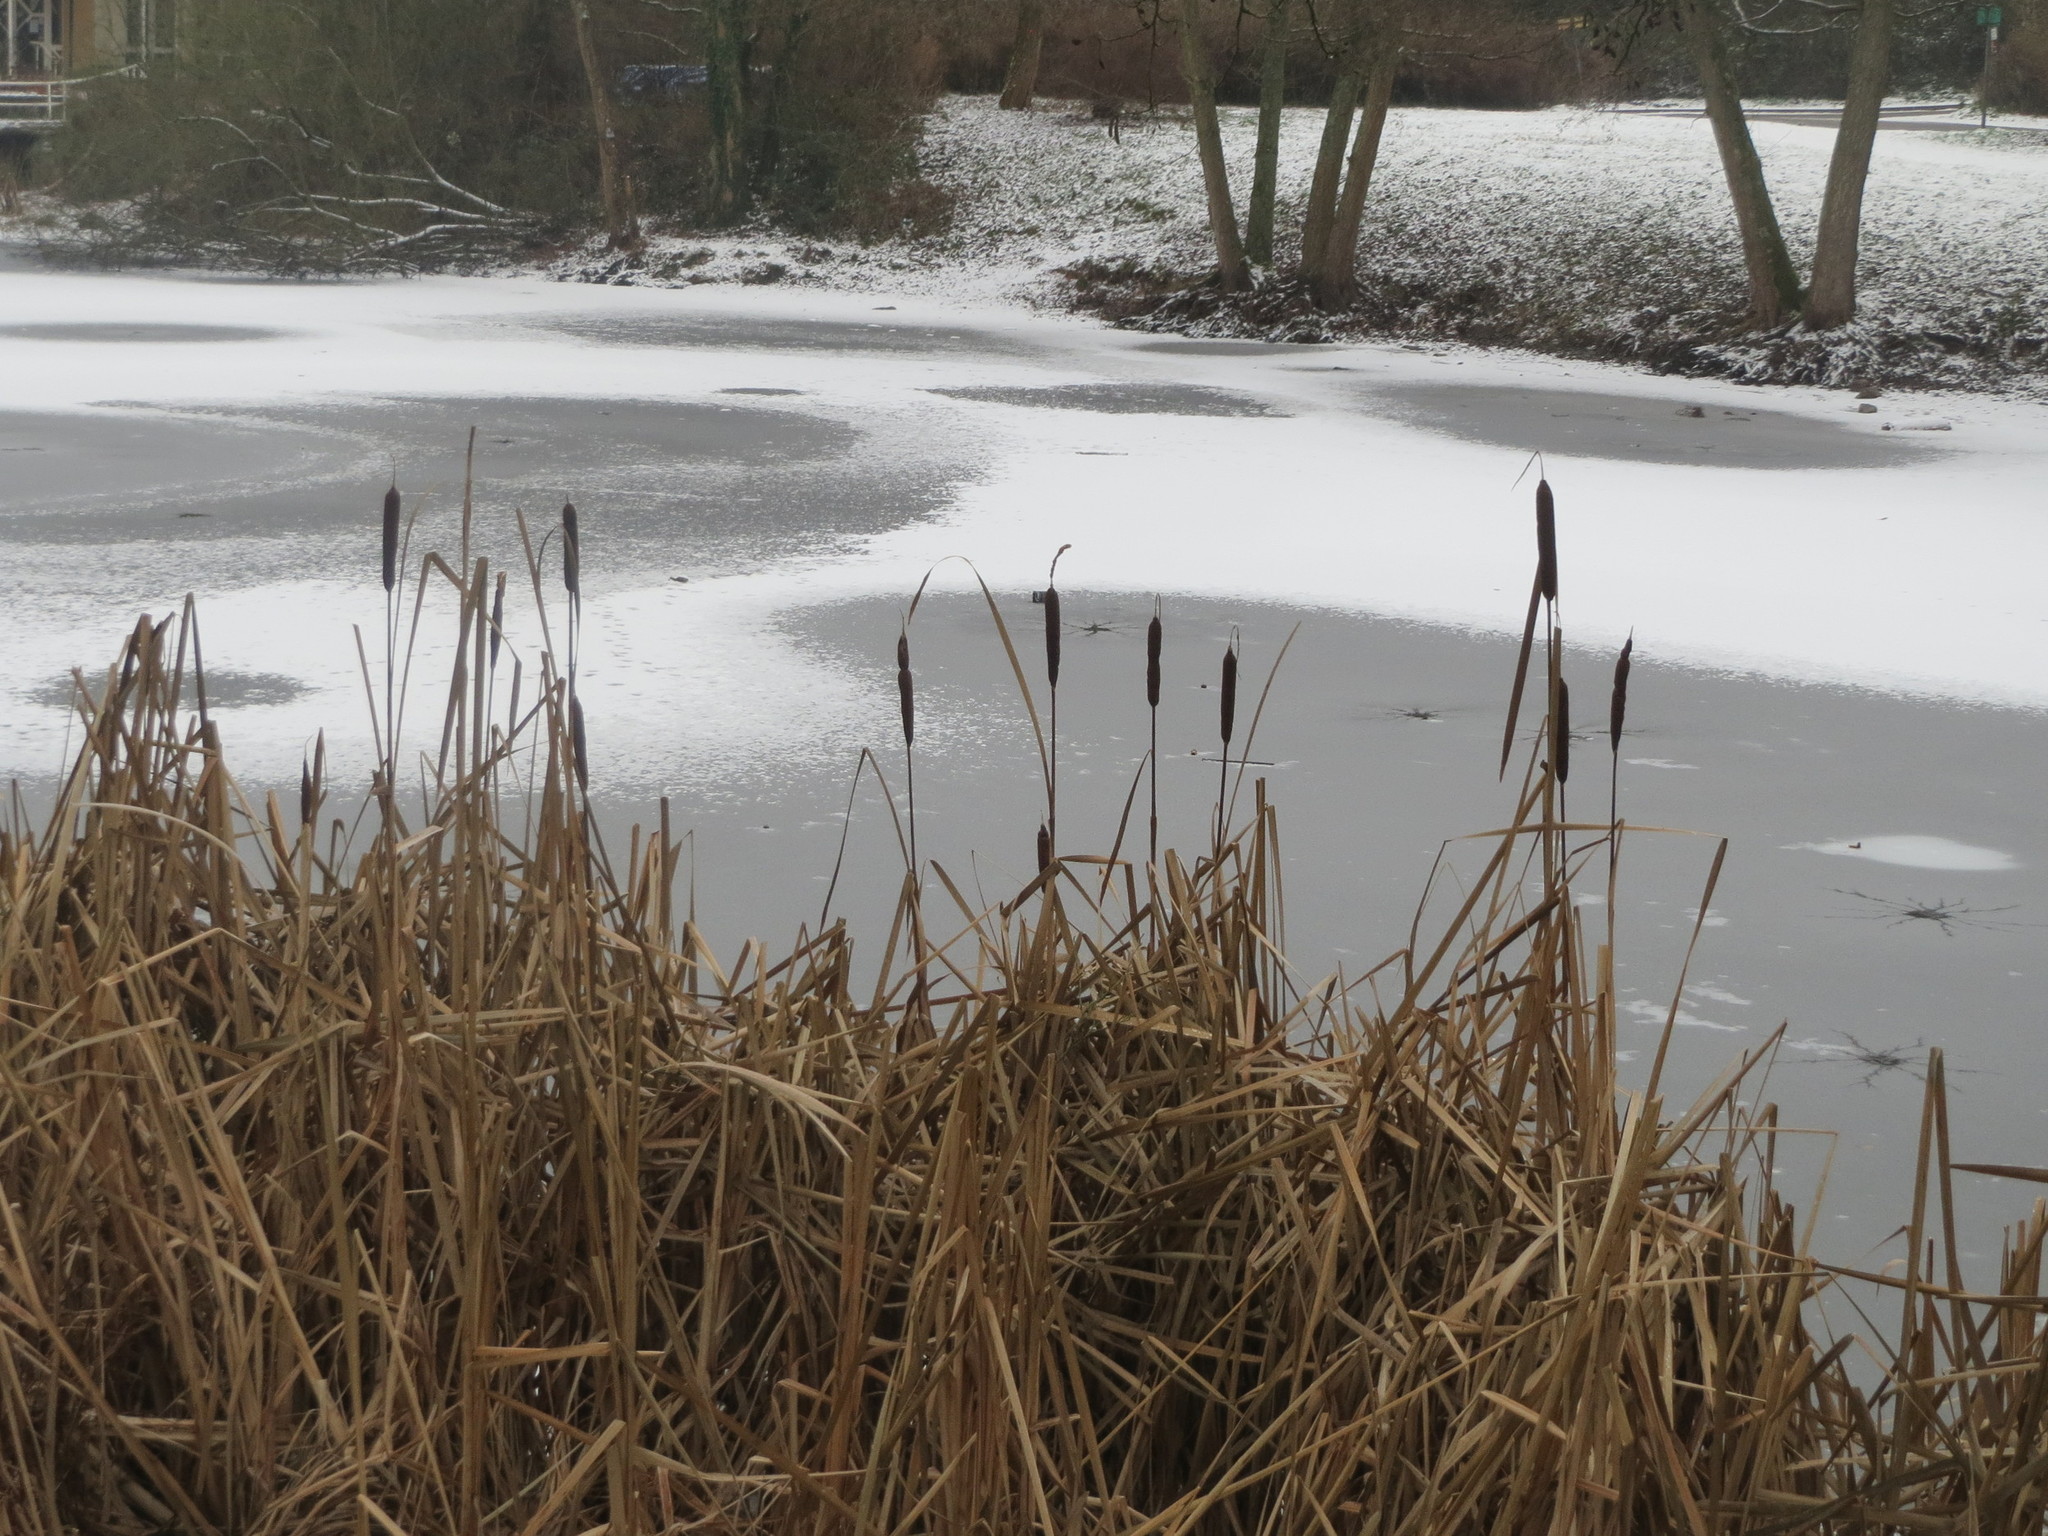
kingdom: Plantae
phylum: Tracheophyta
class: Liliopsida
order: Poales
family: Typhaceae
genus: Typha
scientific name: Typha latifolia
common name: Broadleaf cattail
